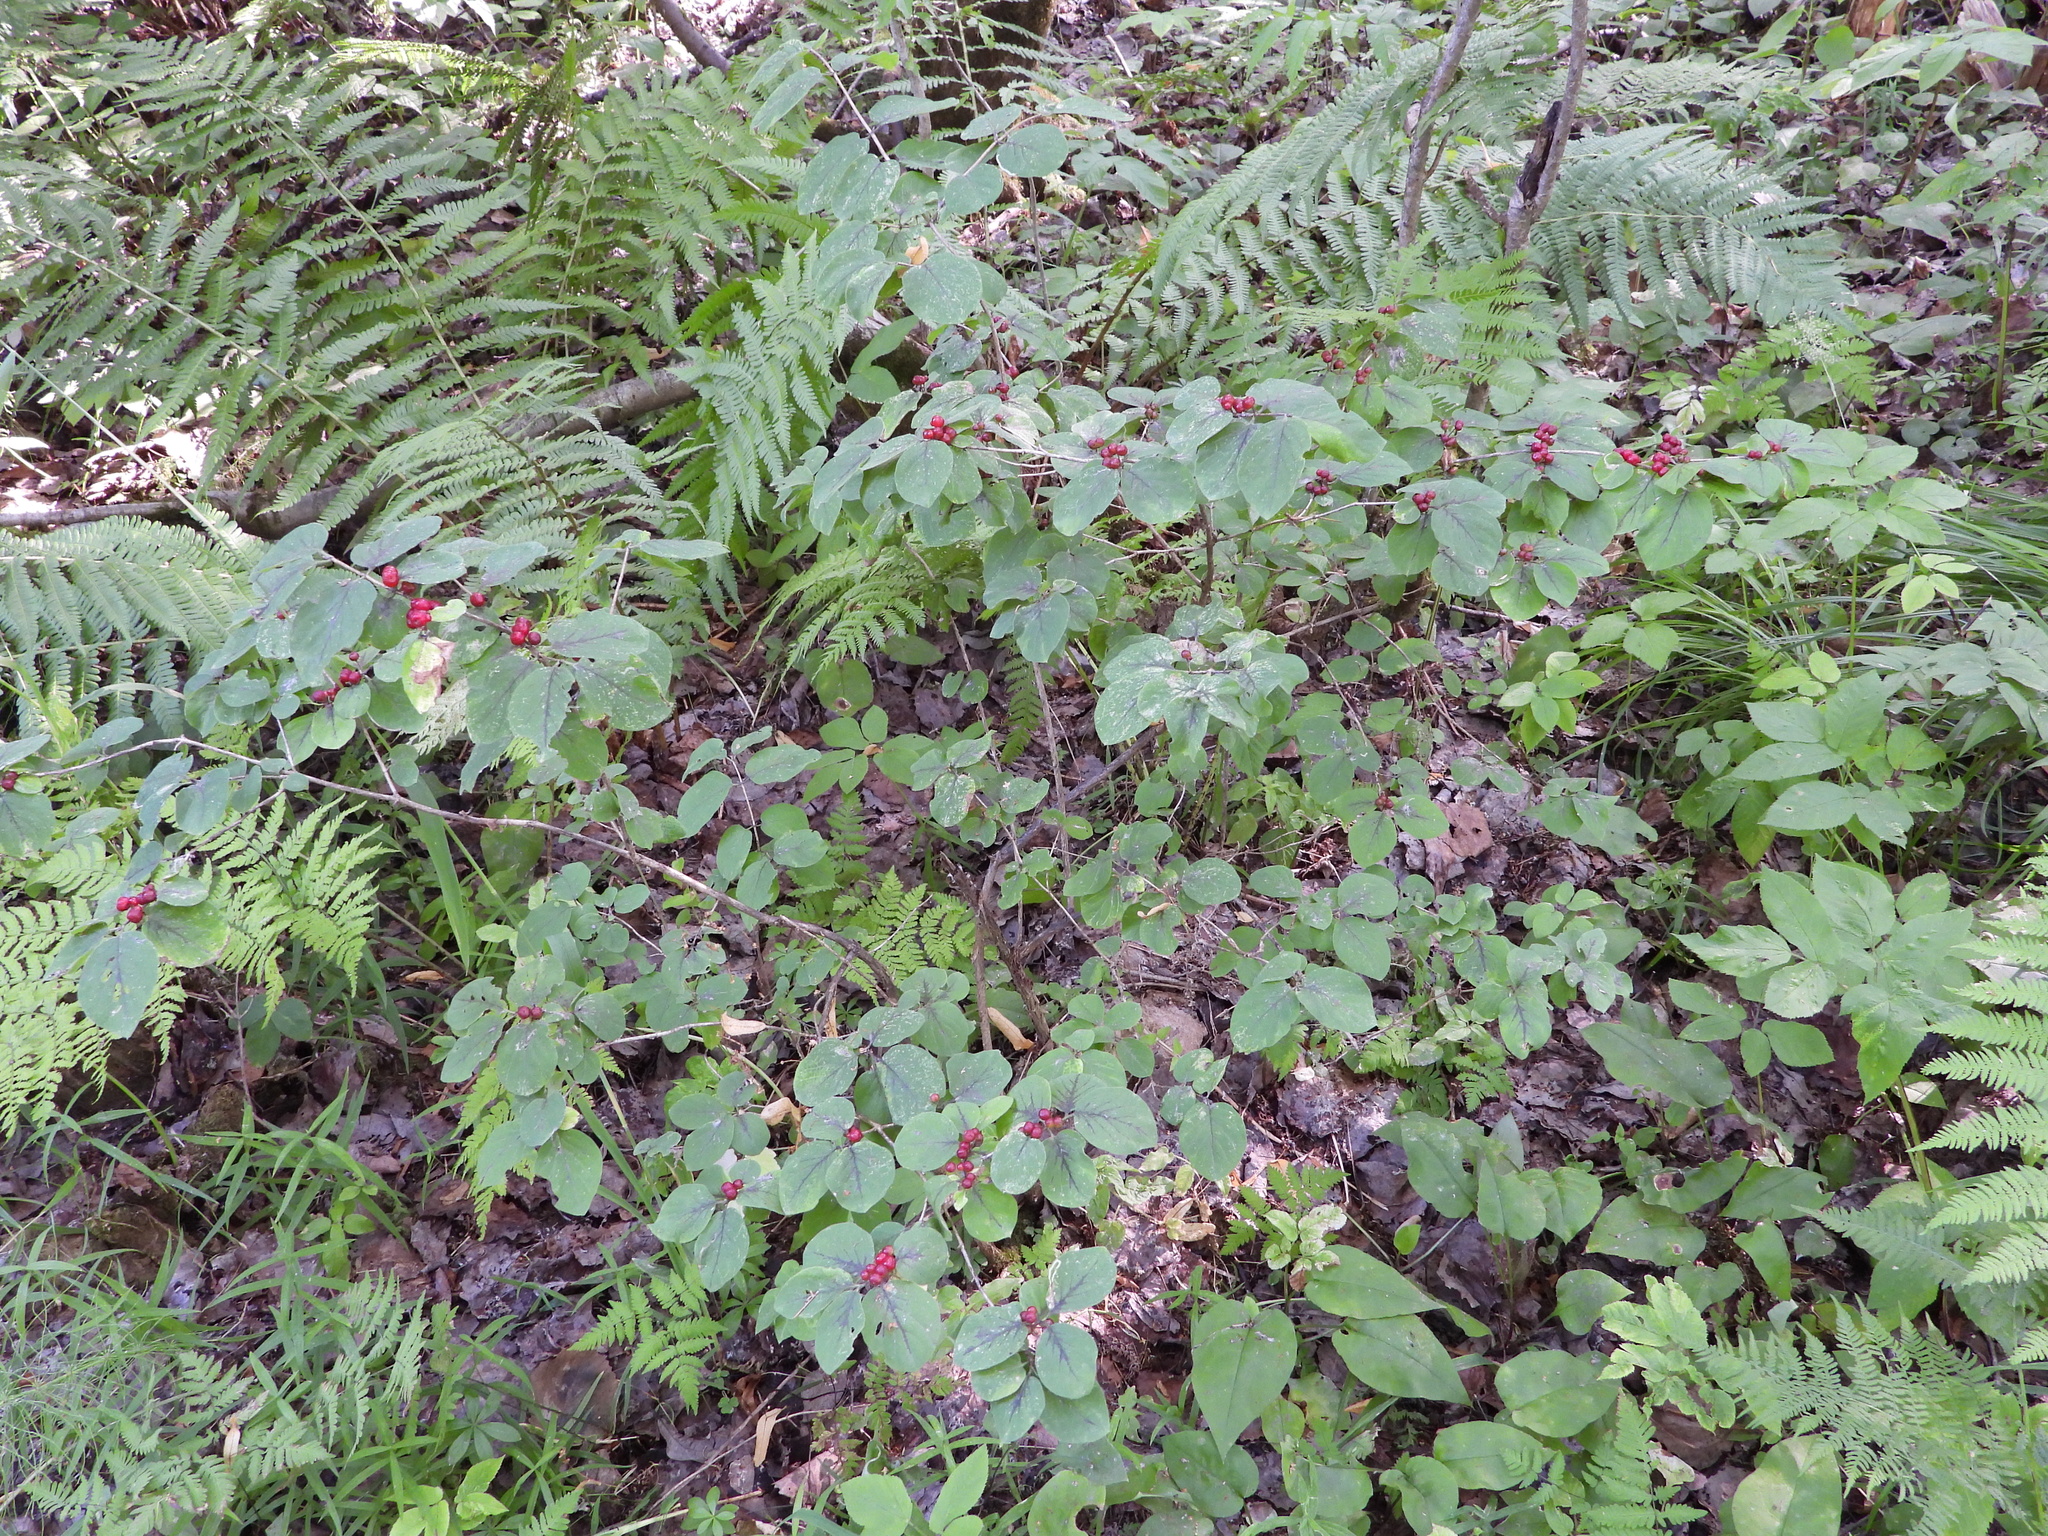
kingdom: Plantae
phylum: Tracheophyta
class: Magnoliopsida
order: Dipsacales
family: Caprifoliaceae
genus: Lonicera
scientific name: Lonicera xylosteum
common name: Fly honeysuckle
